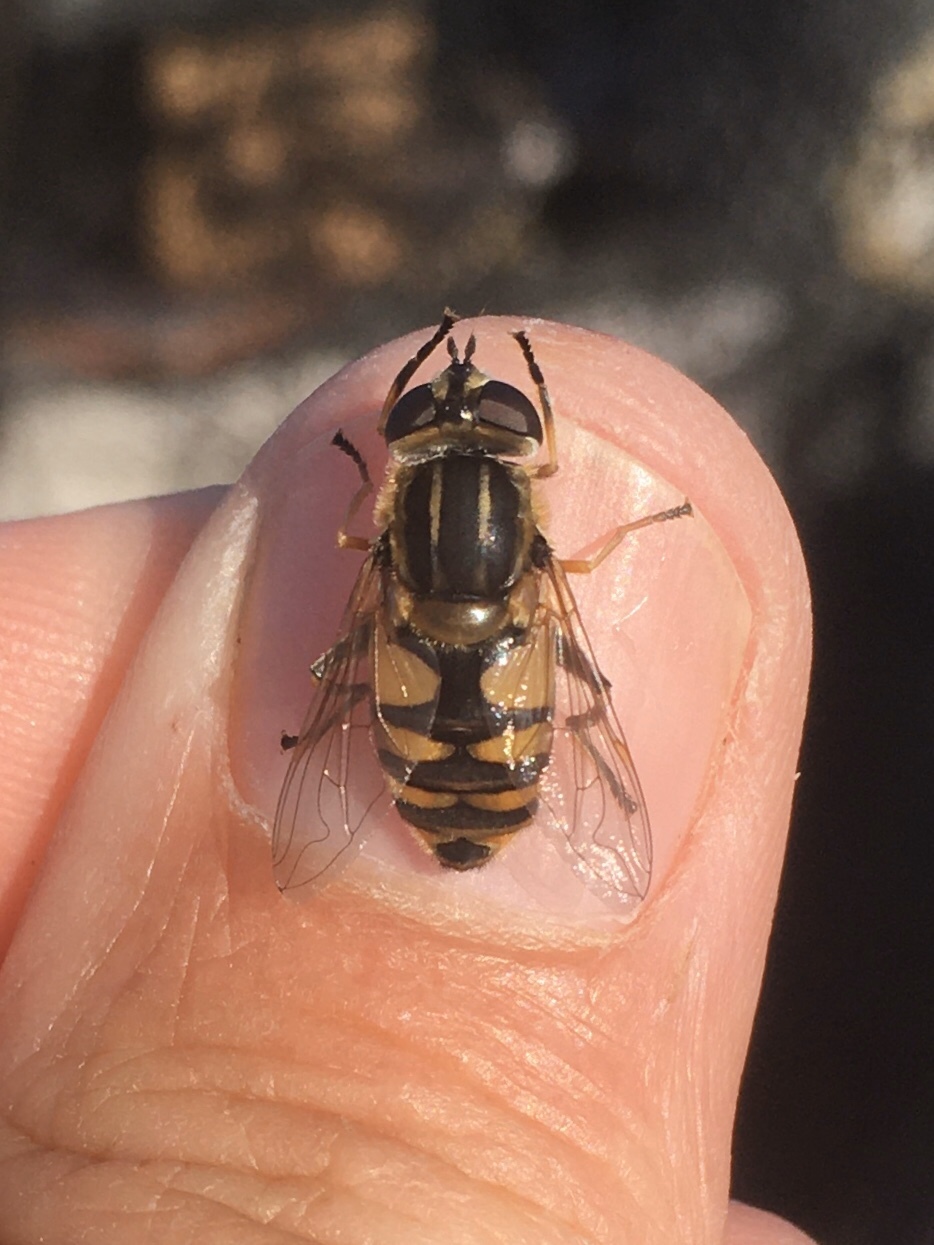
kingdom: Animalia
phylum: Arthropoda
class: Insecta
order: Diptera
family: Syrphidae
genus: Helophilus
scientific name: Helophilus hybridus
